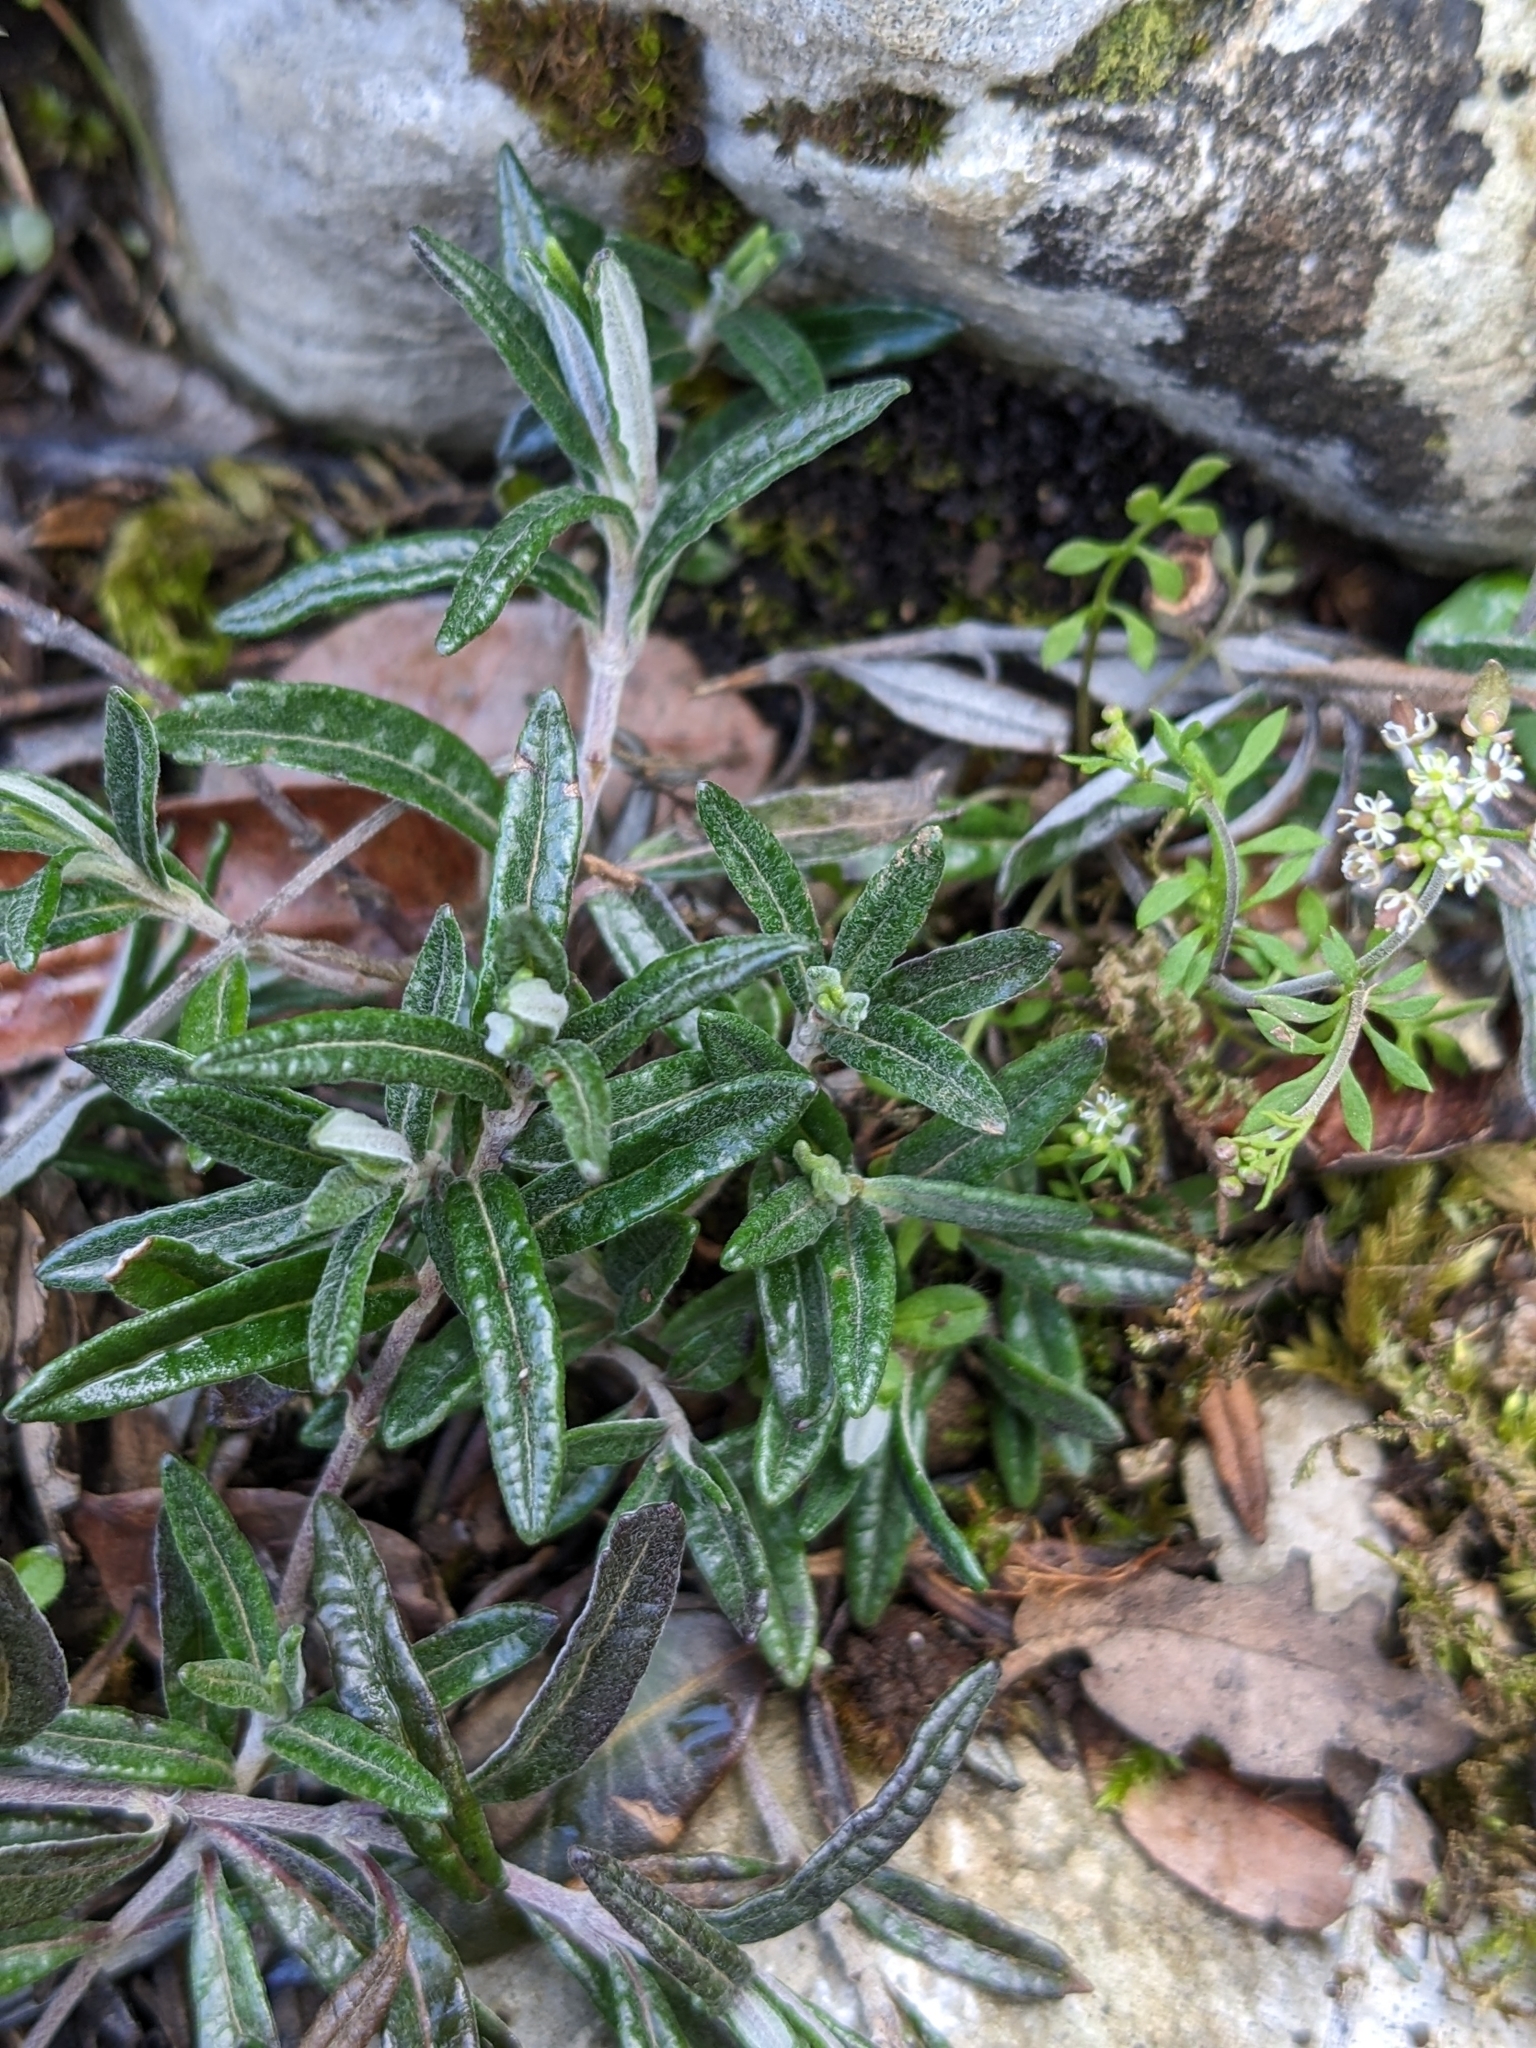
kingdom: Plantae
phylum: Tracheophyta
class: Magnoliopsida
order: Lamiales
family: Lamiaceae
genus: Teucrium
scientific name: Teucrium montanum
